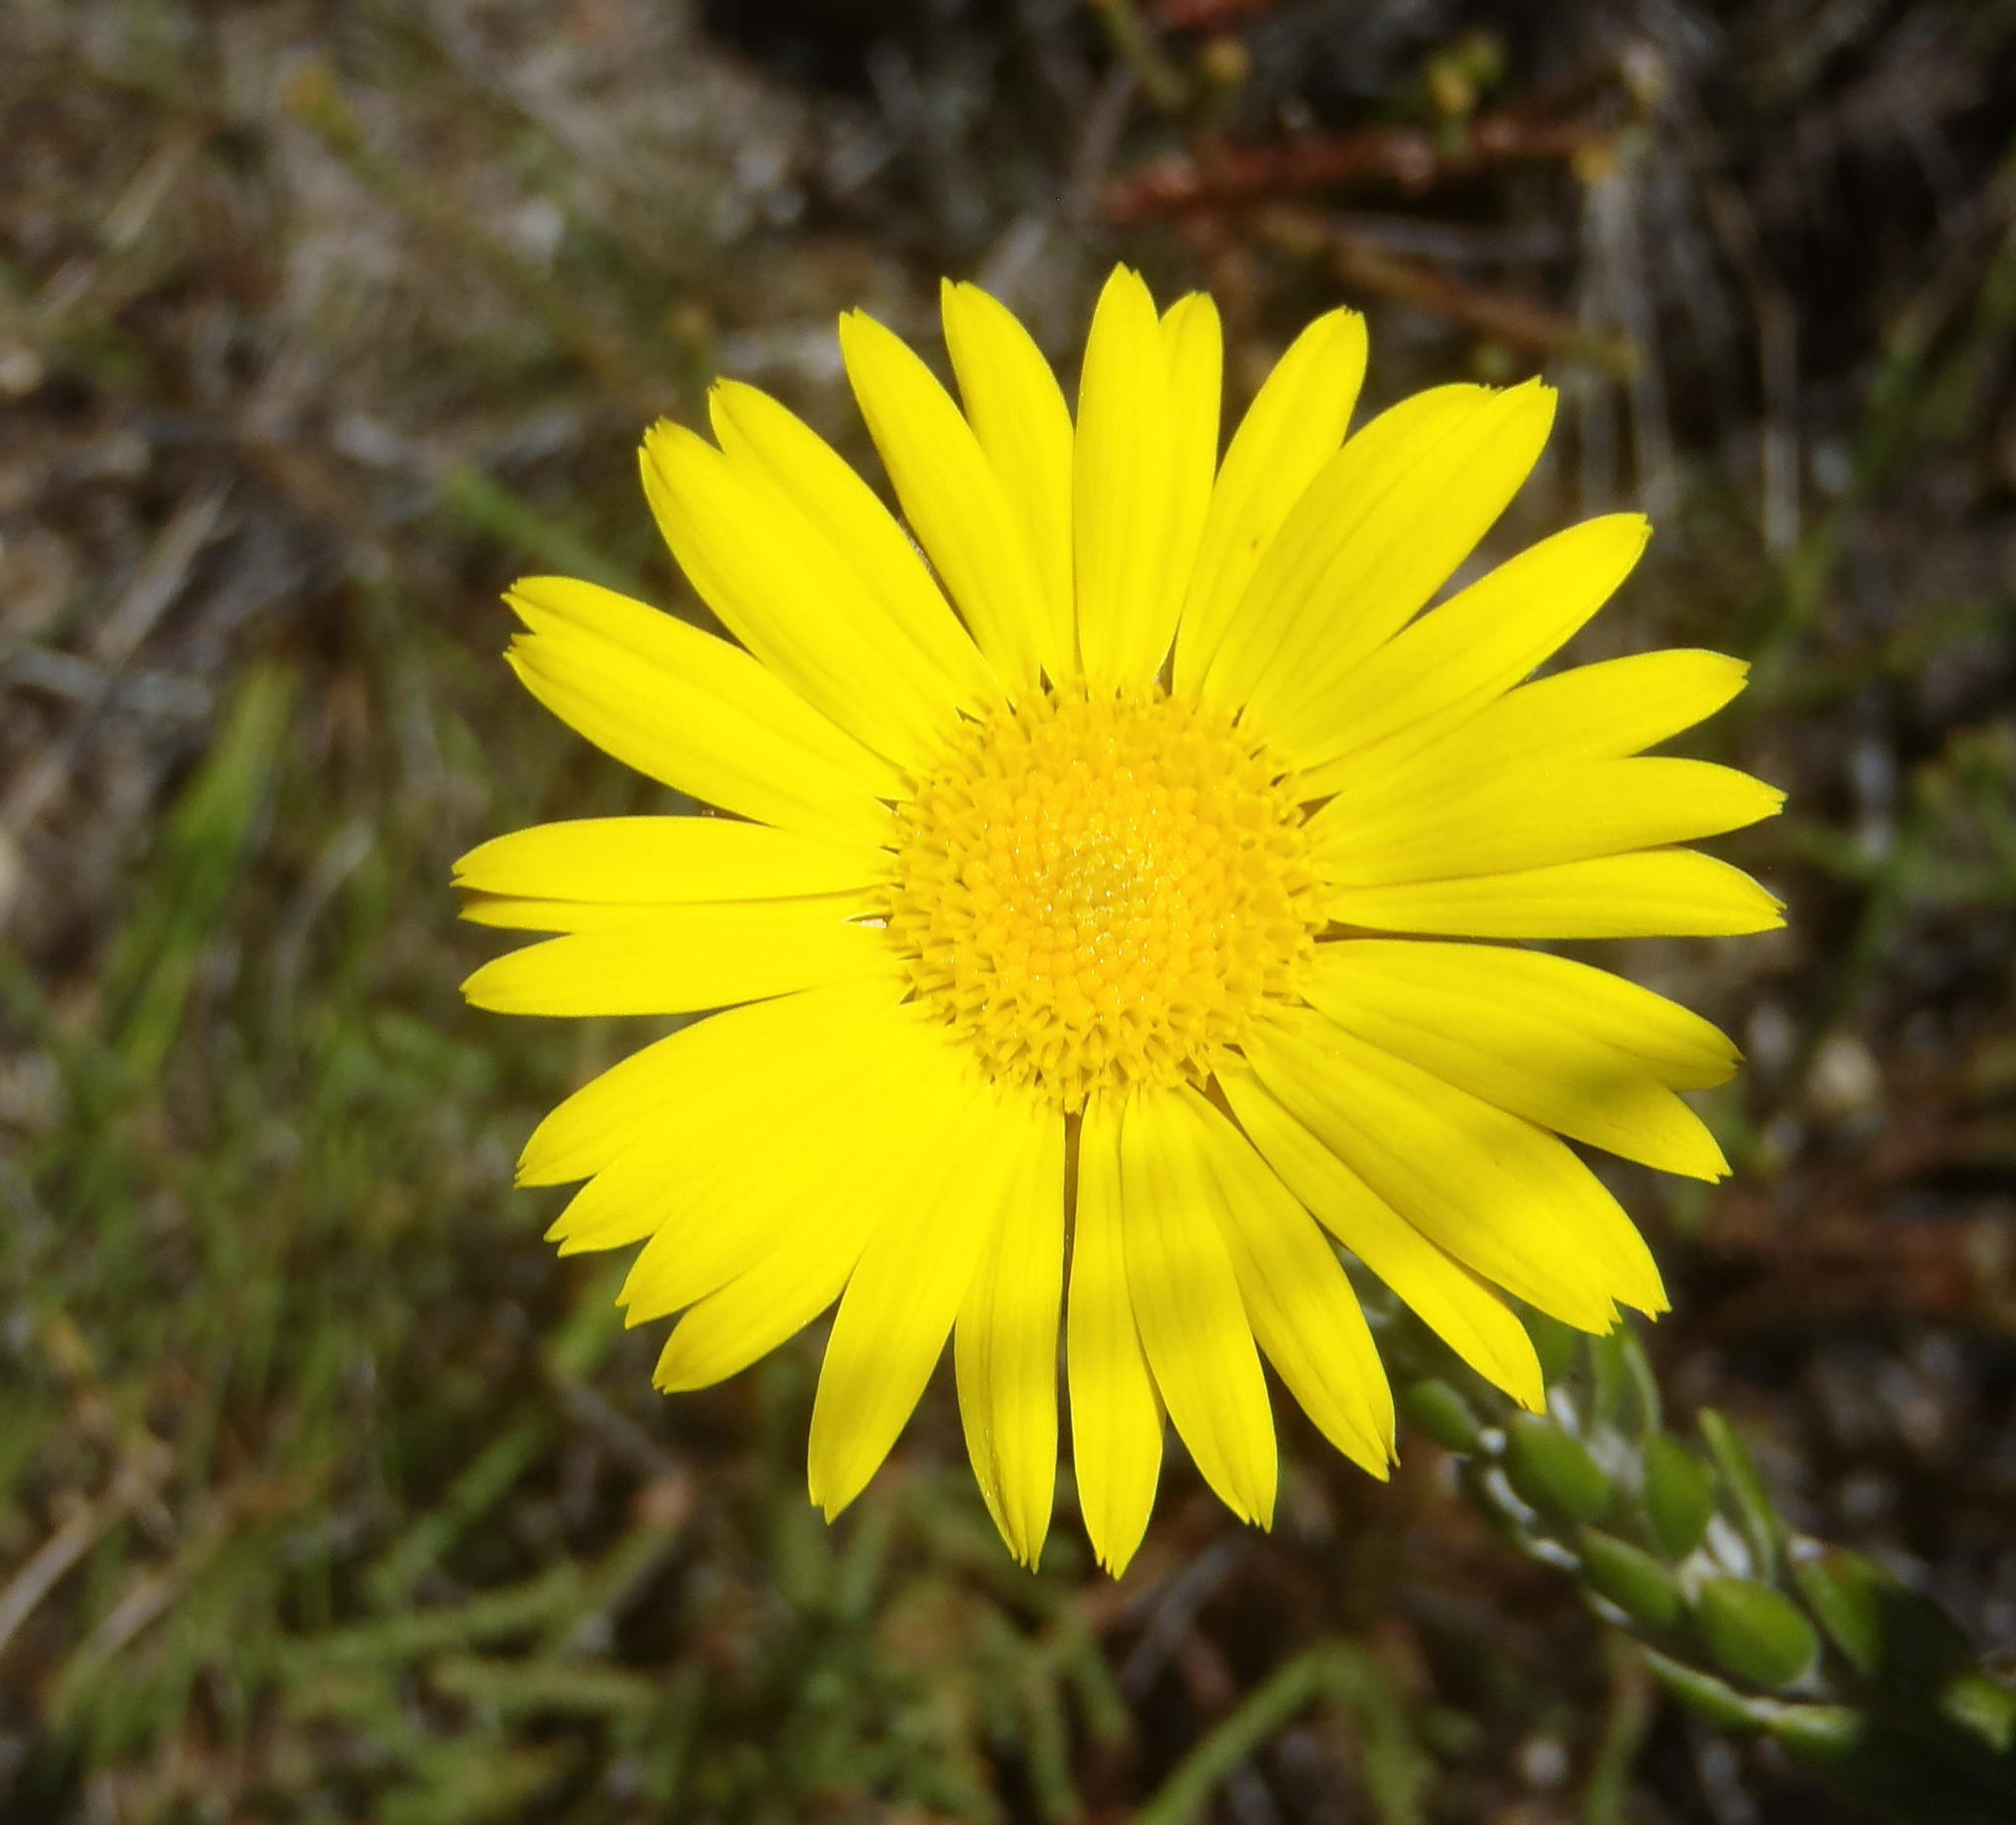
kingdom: Plantae
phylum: Tracheophyta
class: Magnoliopsida
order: Asterales
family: Asteraceae
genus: Oedera
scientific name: Oedera calycina
